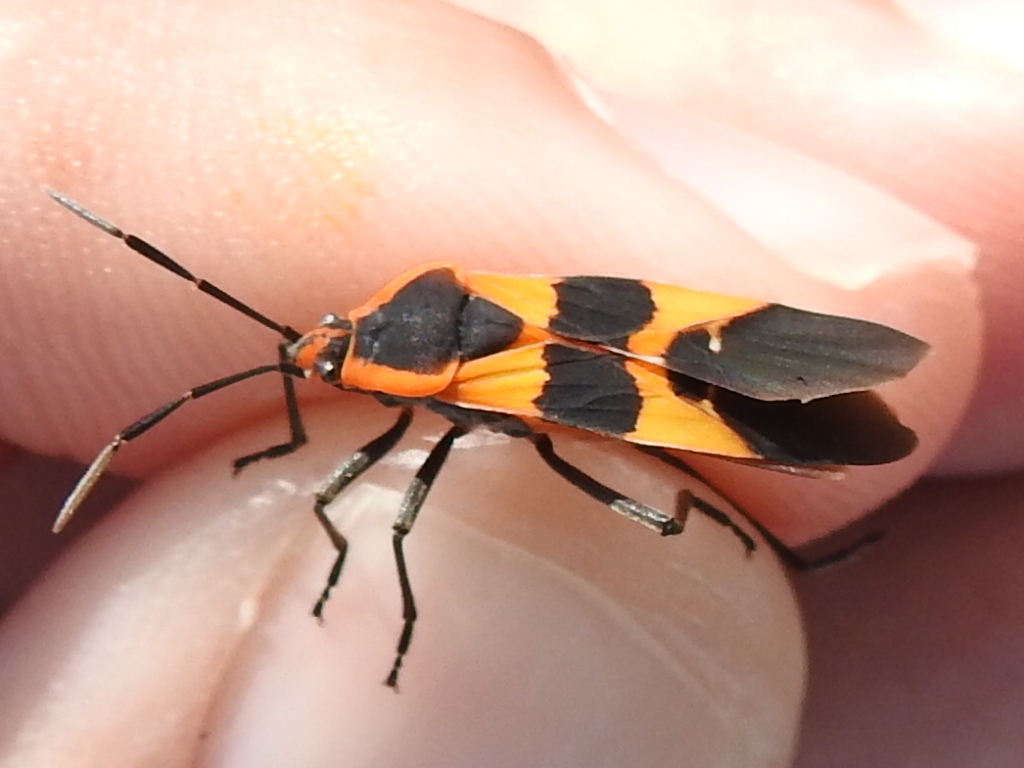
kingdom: Animalia
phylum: Arthropoda
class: Insecta
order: Hemiptera
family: Lygaeidae
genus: Oncopeltus
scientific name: Oncopeltus fasciatus
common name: Large milkweed bug
